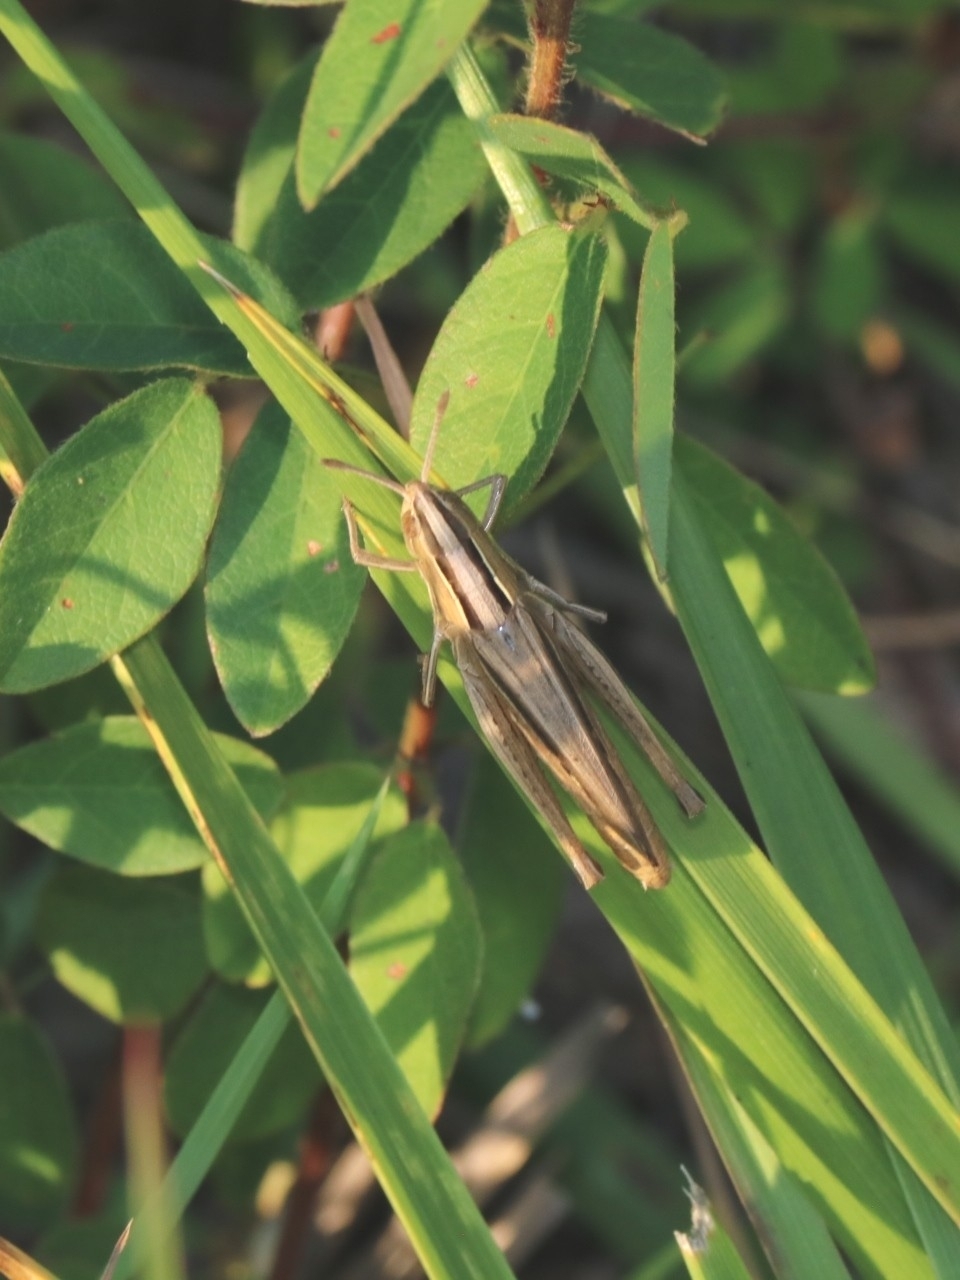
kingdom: Animalia
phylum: Arthropoda
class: Insecta
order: Orthoptera
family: Acrididae
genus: Eritettix
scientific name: Eritettix simplex
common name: Velvet-striped grasshopper
